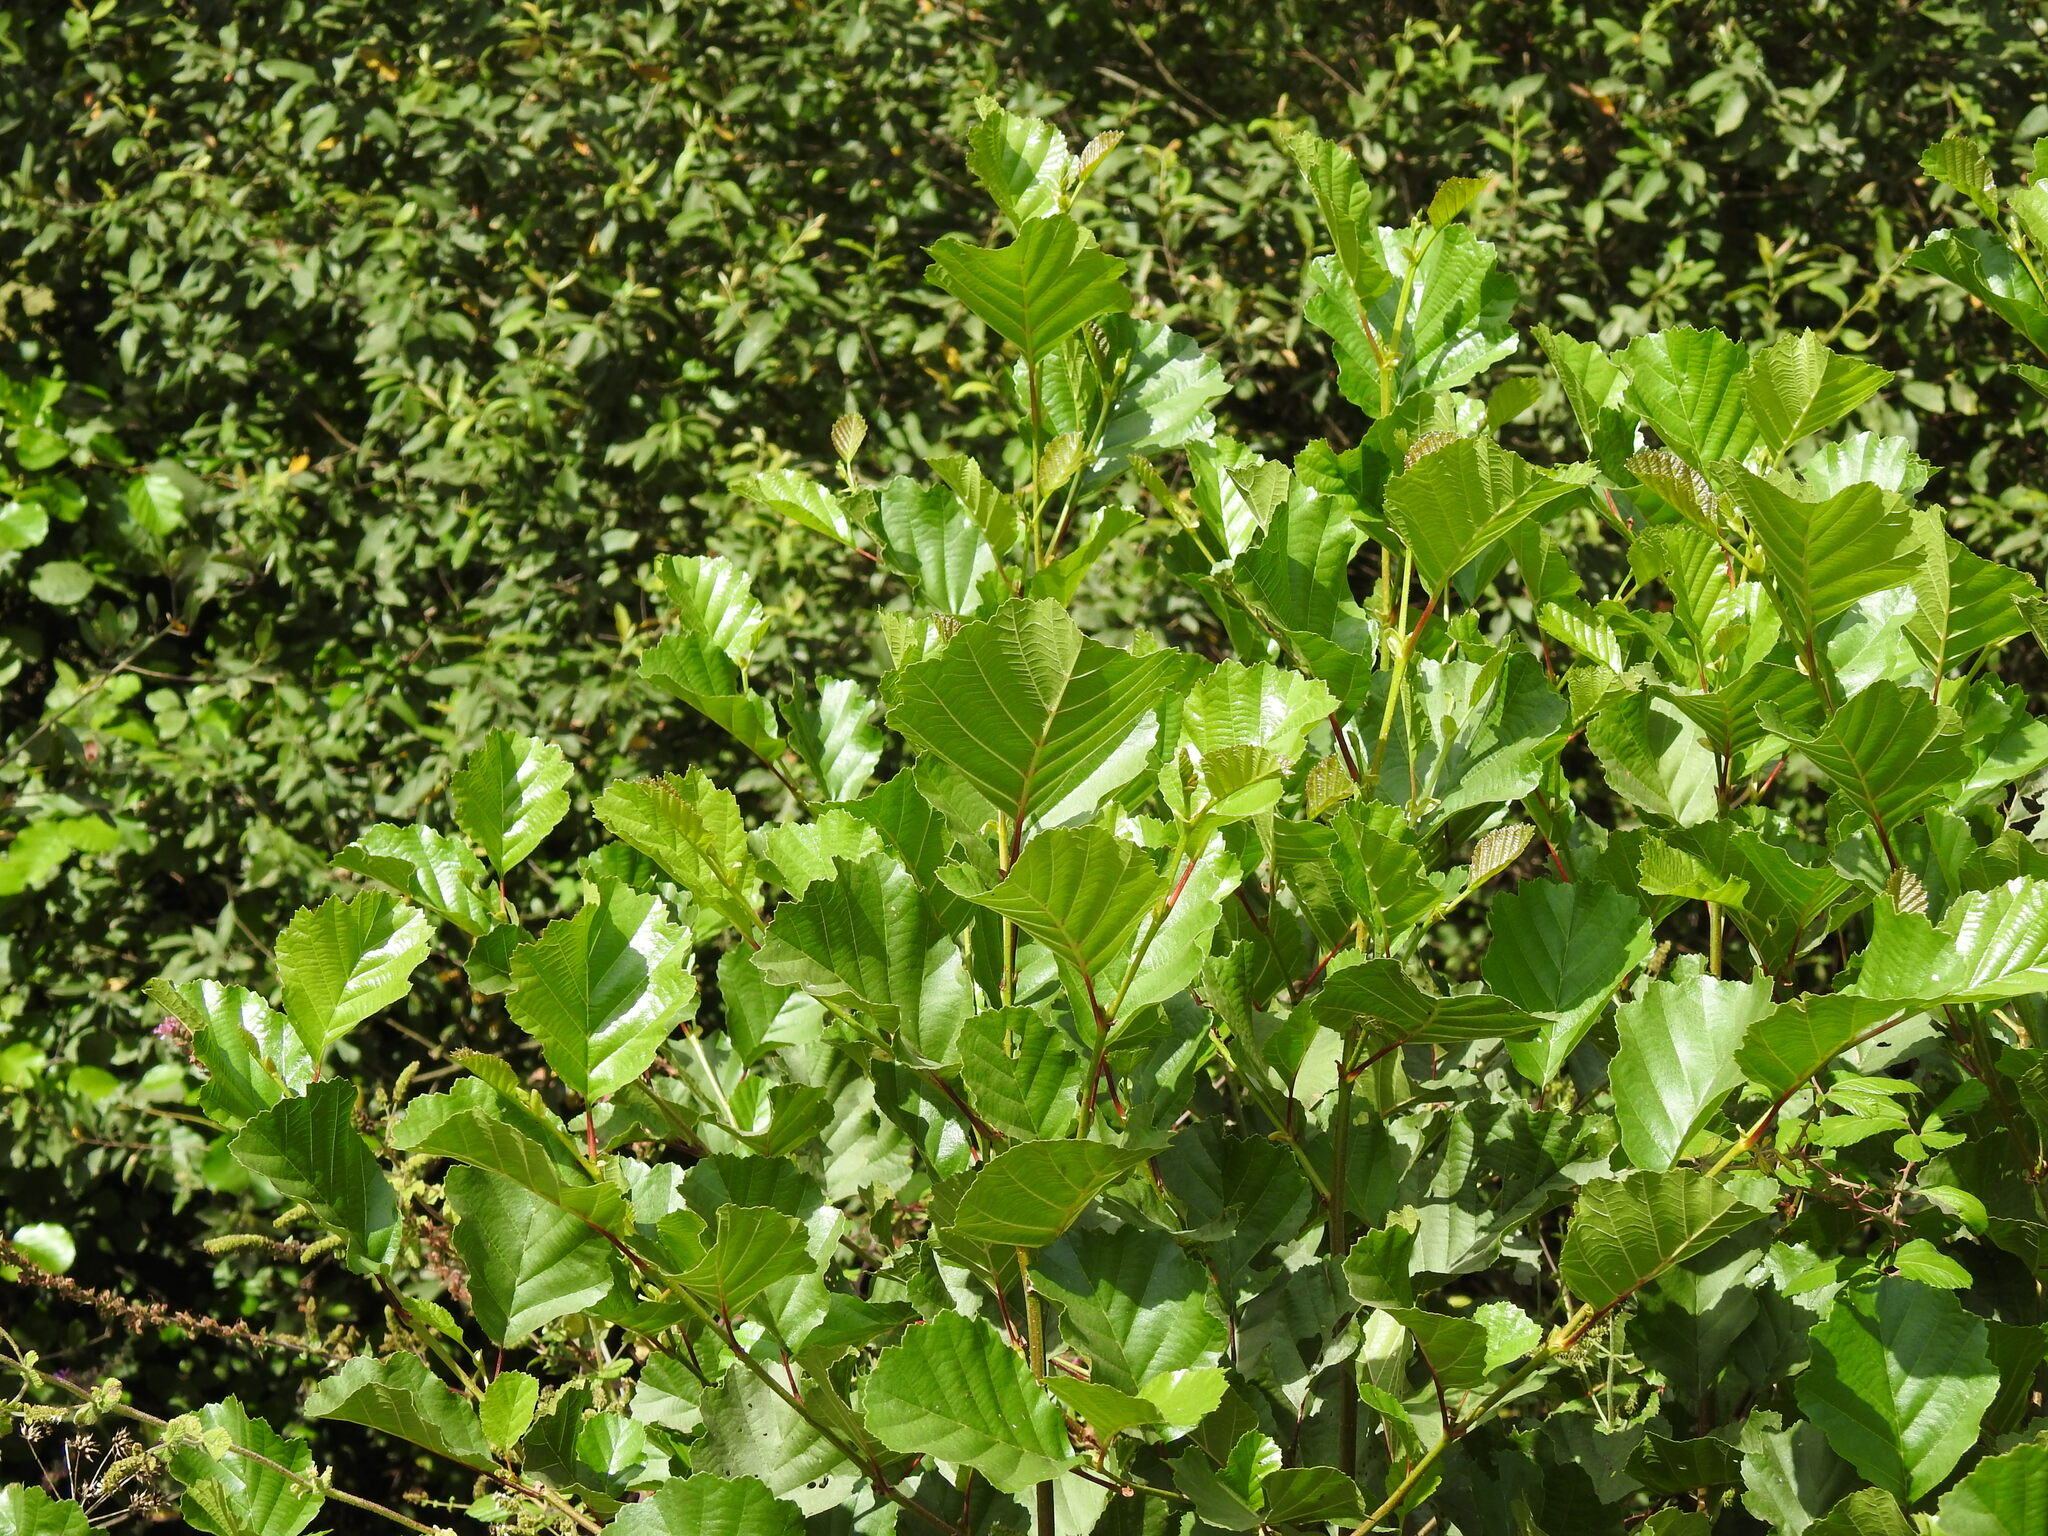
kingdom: Plantae
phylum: Tracheophyta
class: Magnoliopsida
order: Fagales
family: Betulaceae
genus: Alnus
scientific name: Alnus lusitanica
